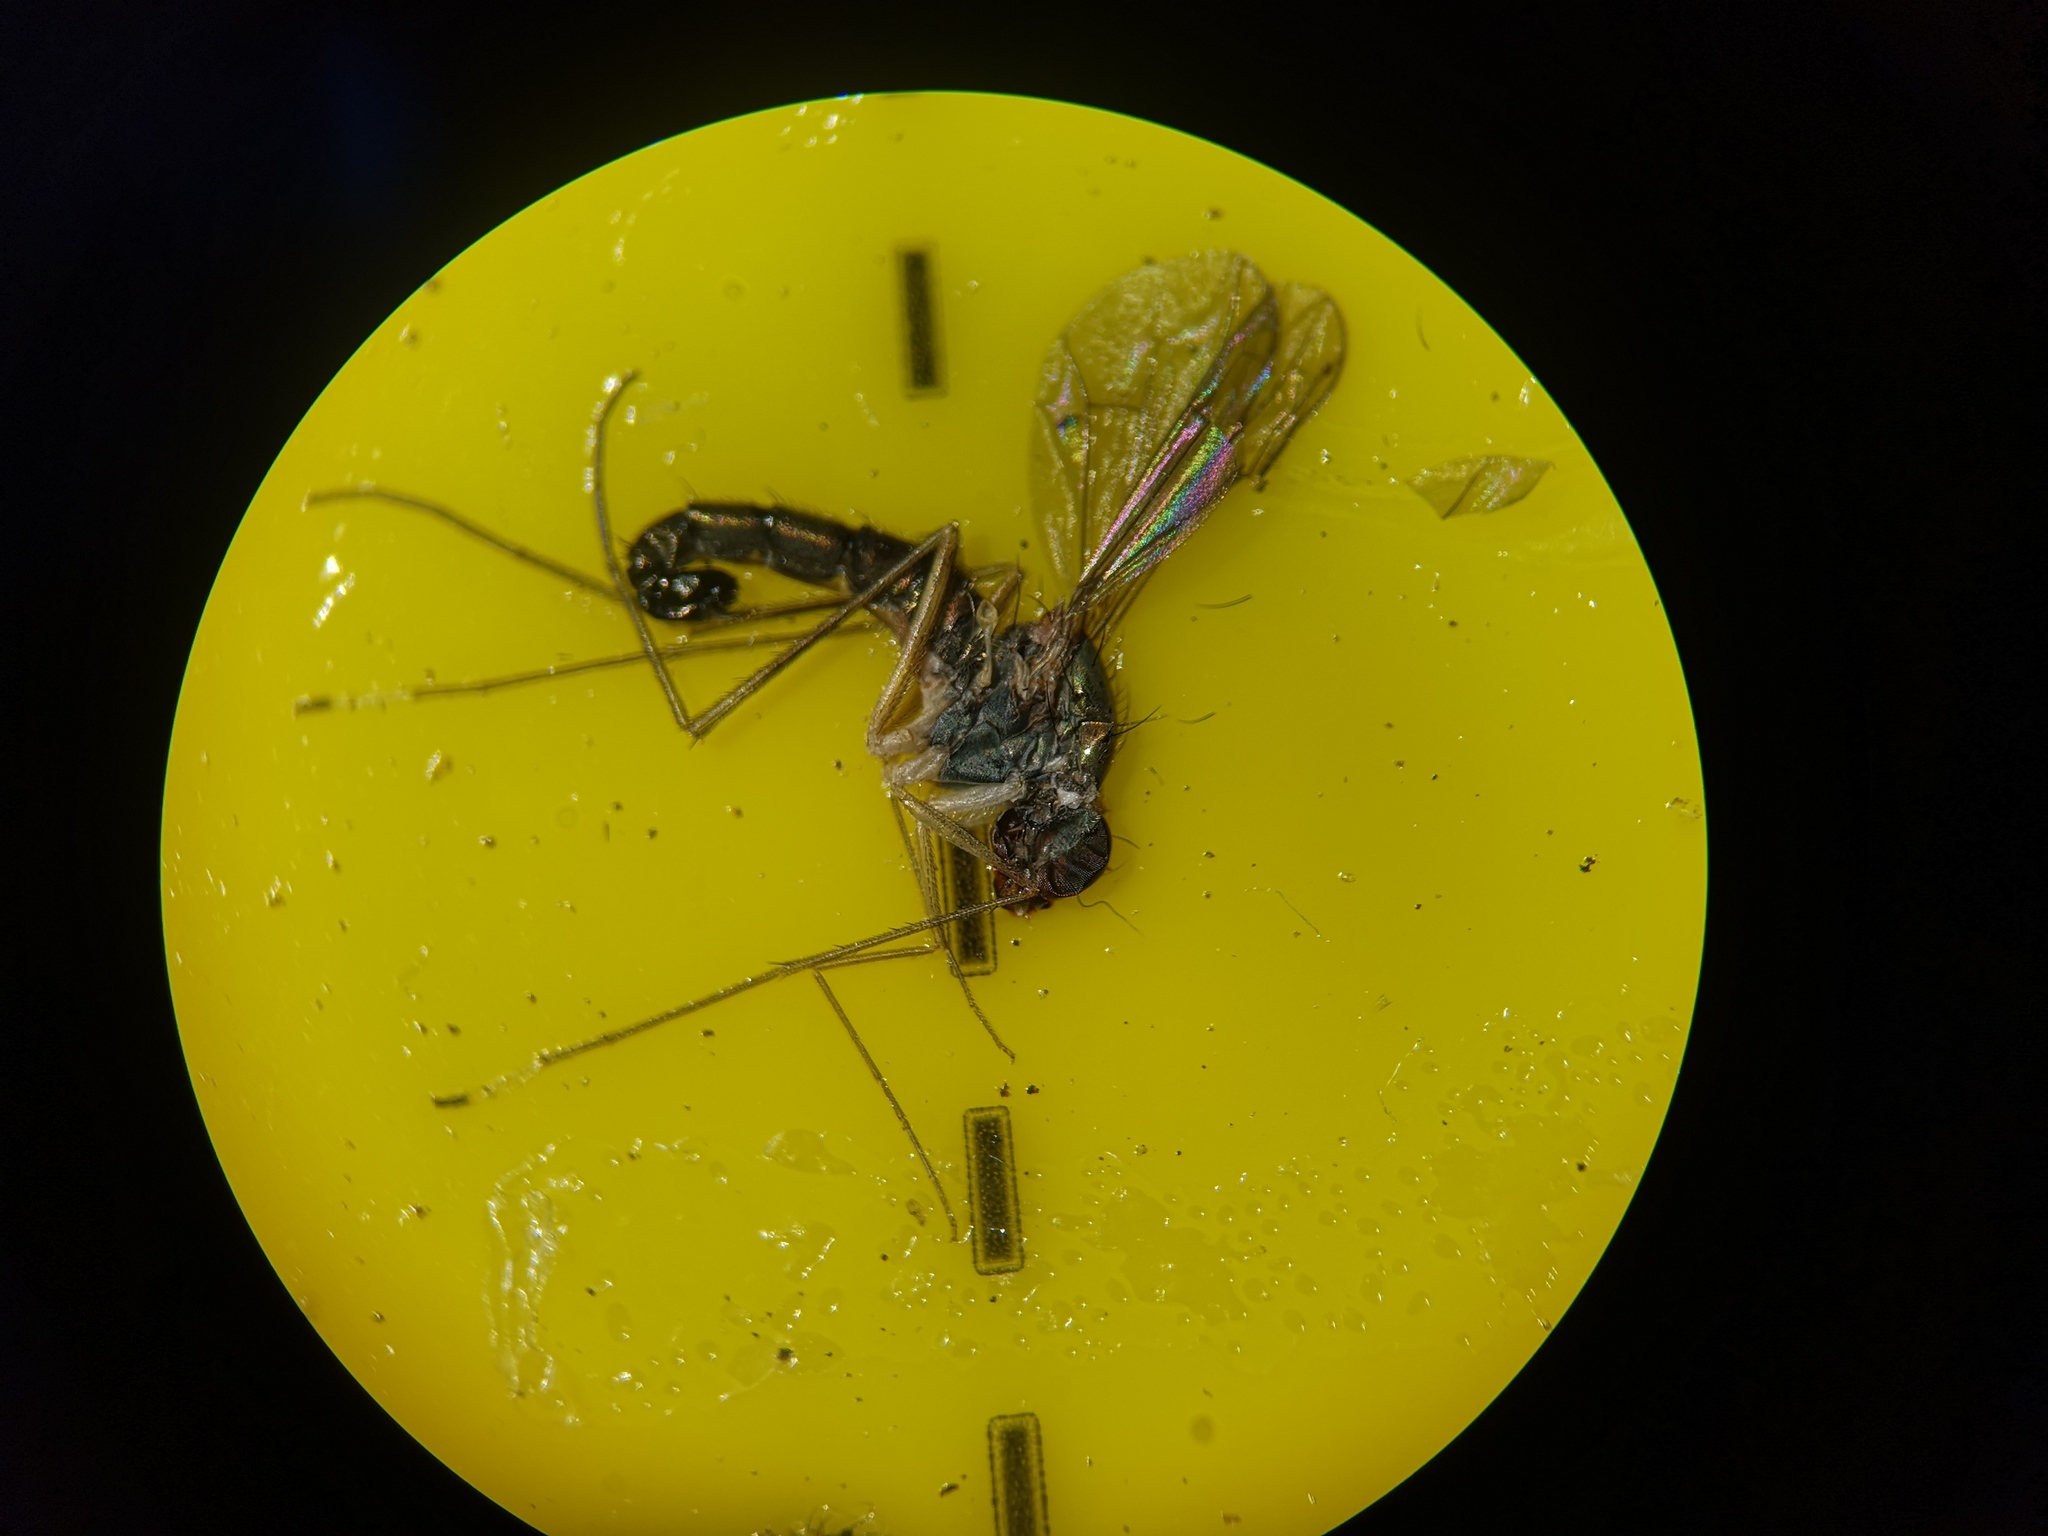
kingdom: Animalia
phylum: Arthropoda
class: Insecta
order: Diptera
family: Dolichopodidae
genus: Sciapus
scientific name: Sciapus platypterus
